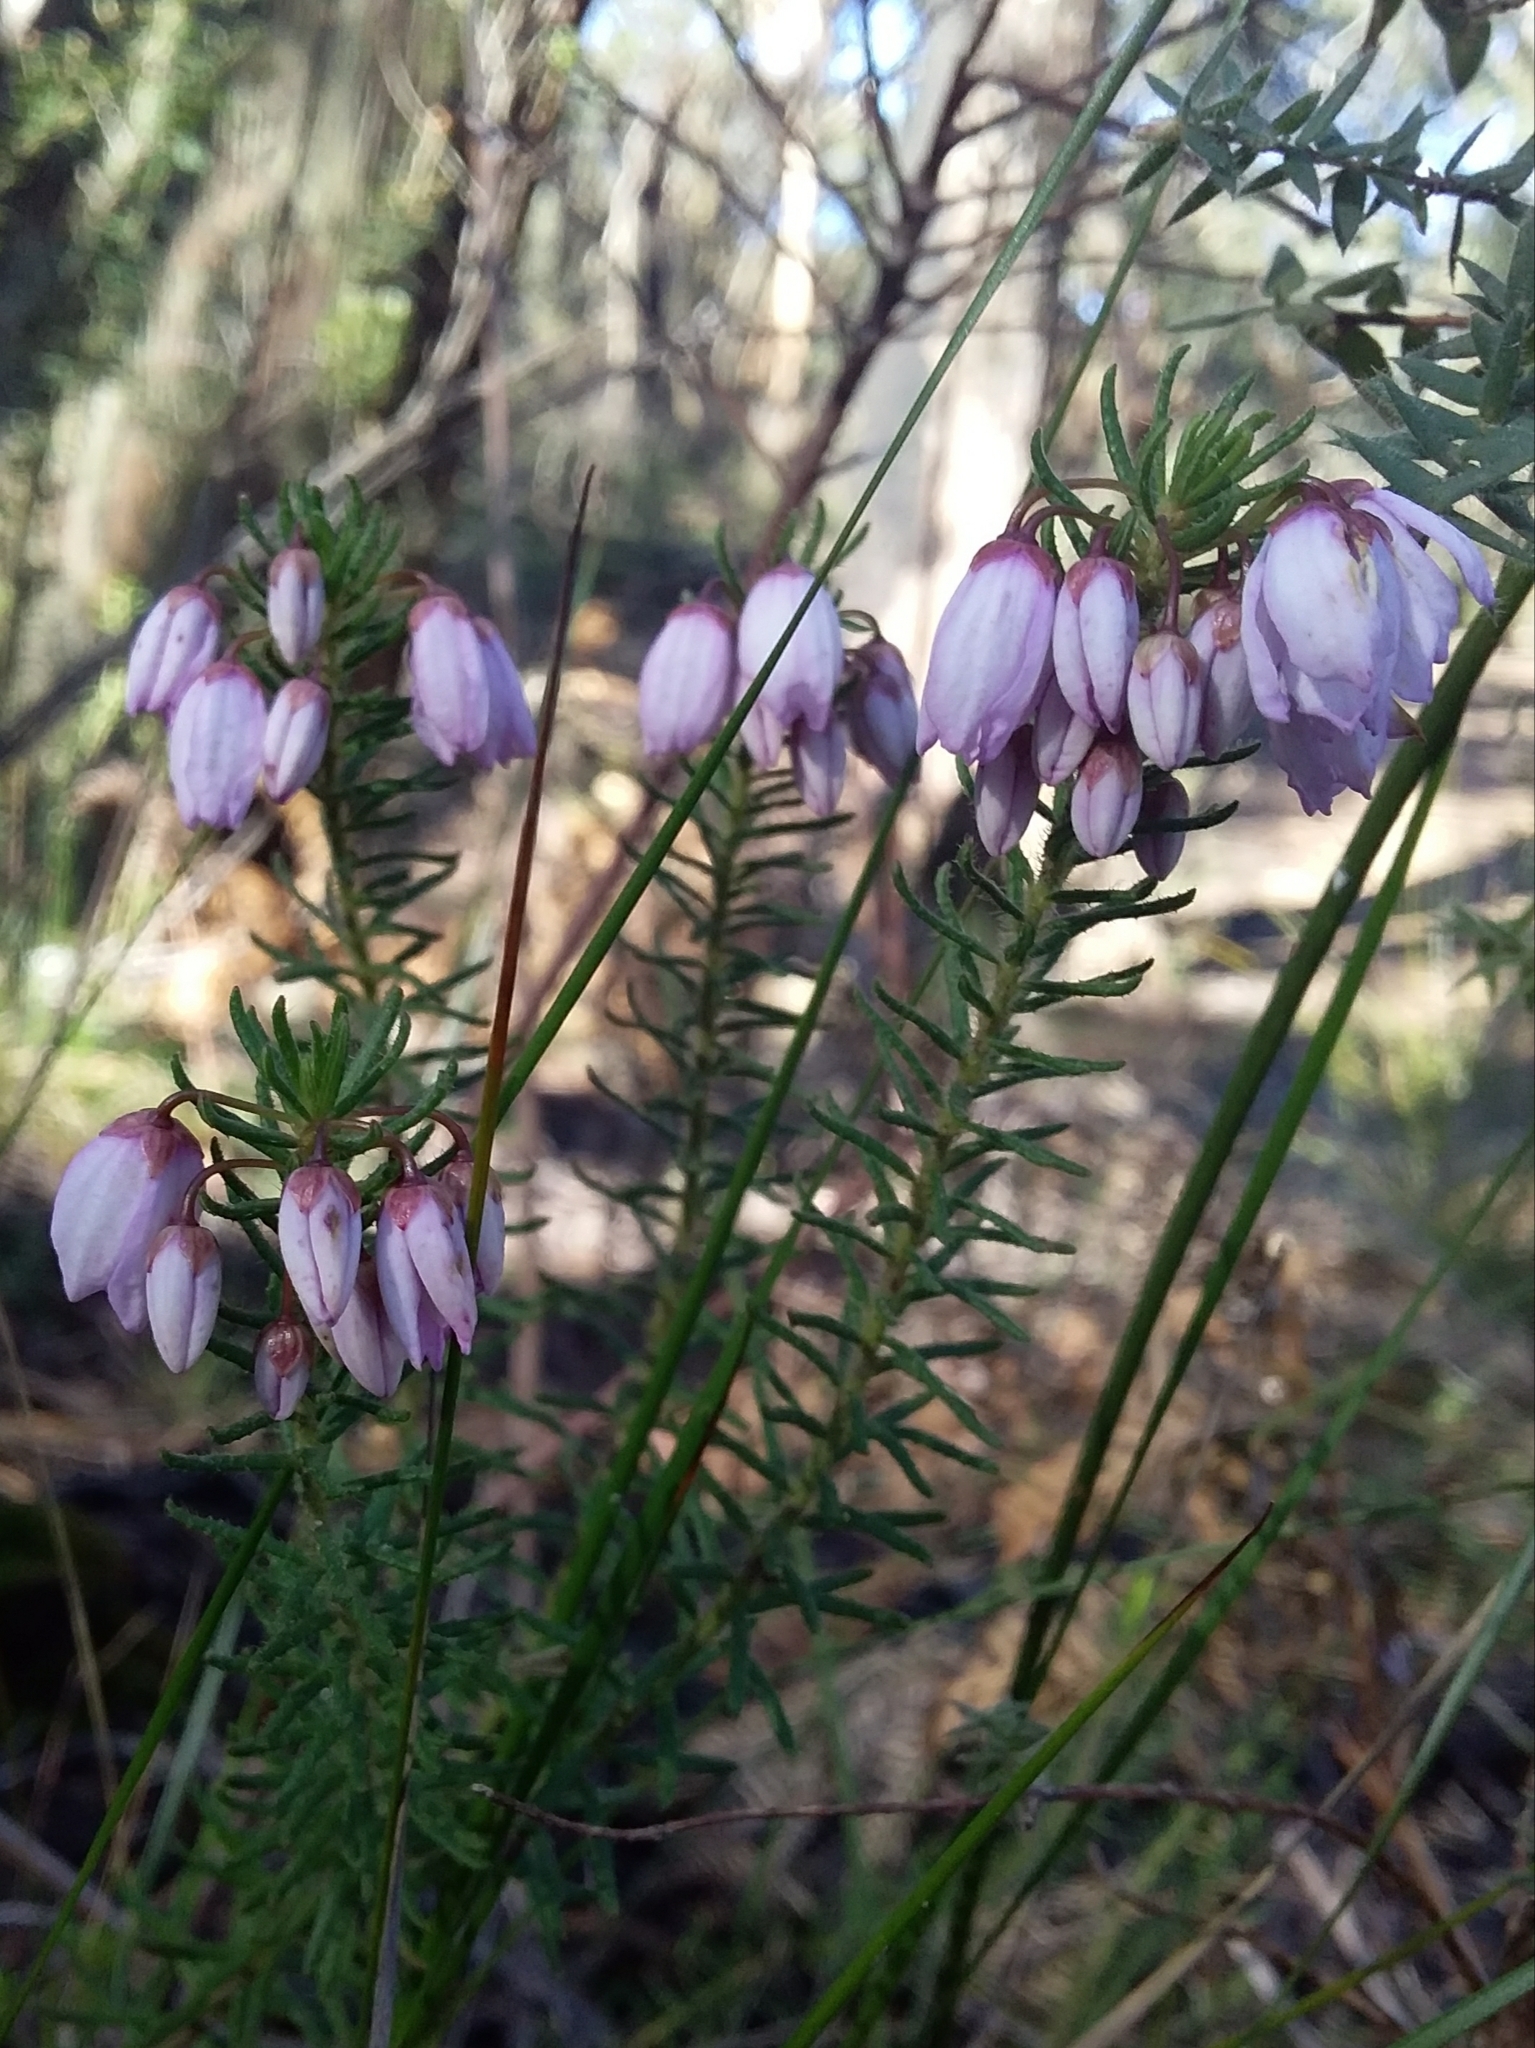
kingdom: Plantae
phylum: Tracheophyta
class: Magnoliopsida
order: Oxalidales
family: Elaeocarpaceae
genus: Tetratheca
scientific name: Tetratheca pilosa
